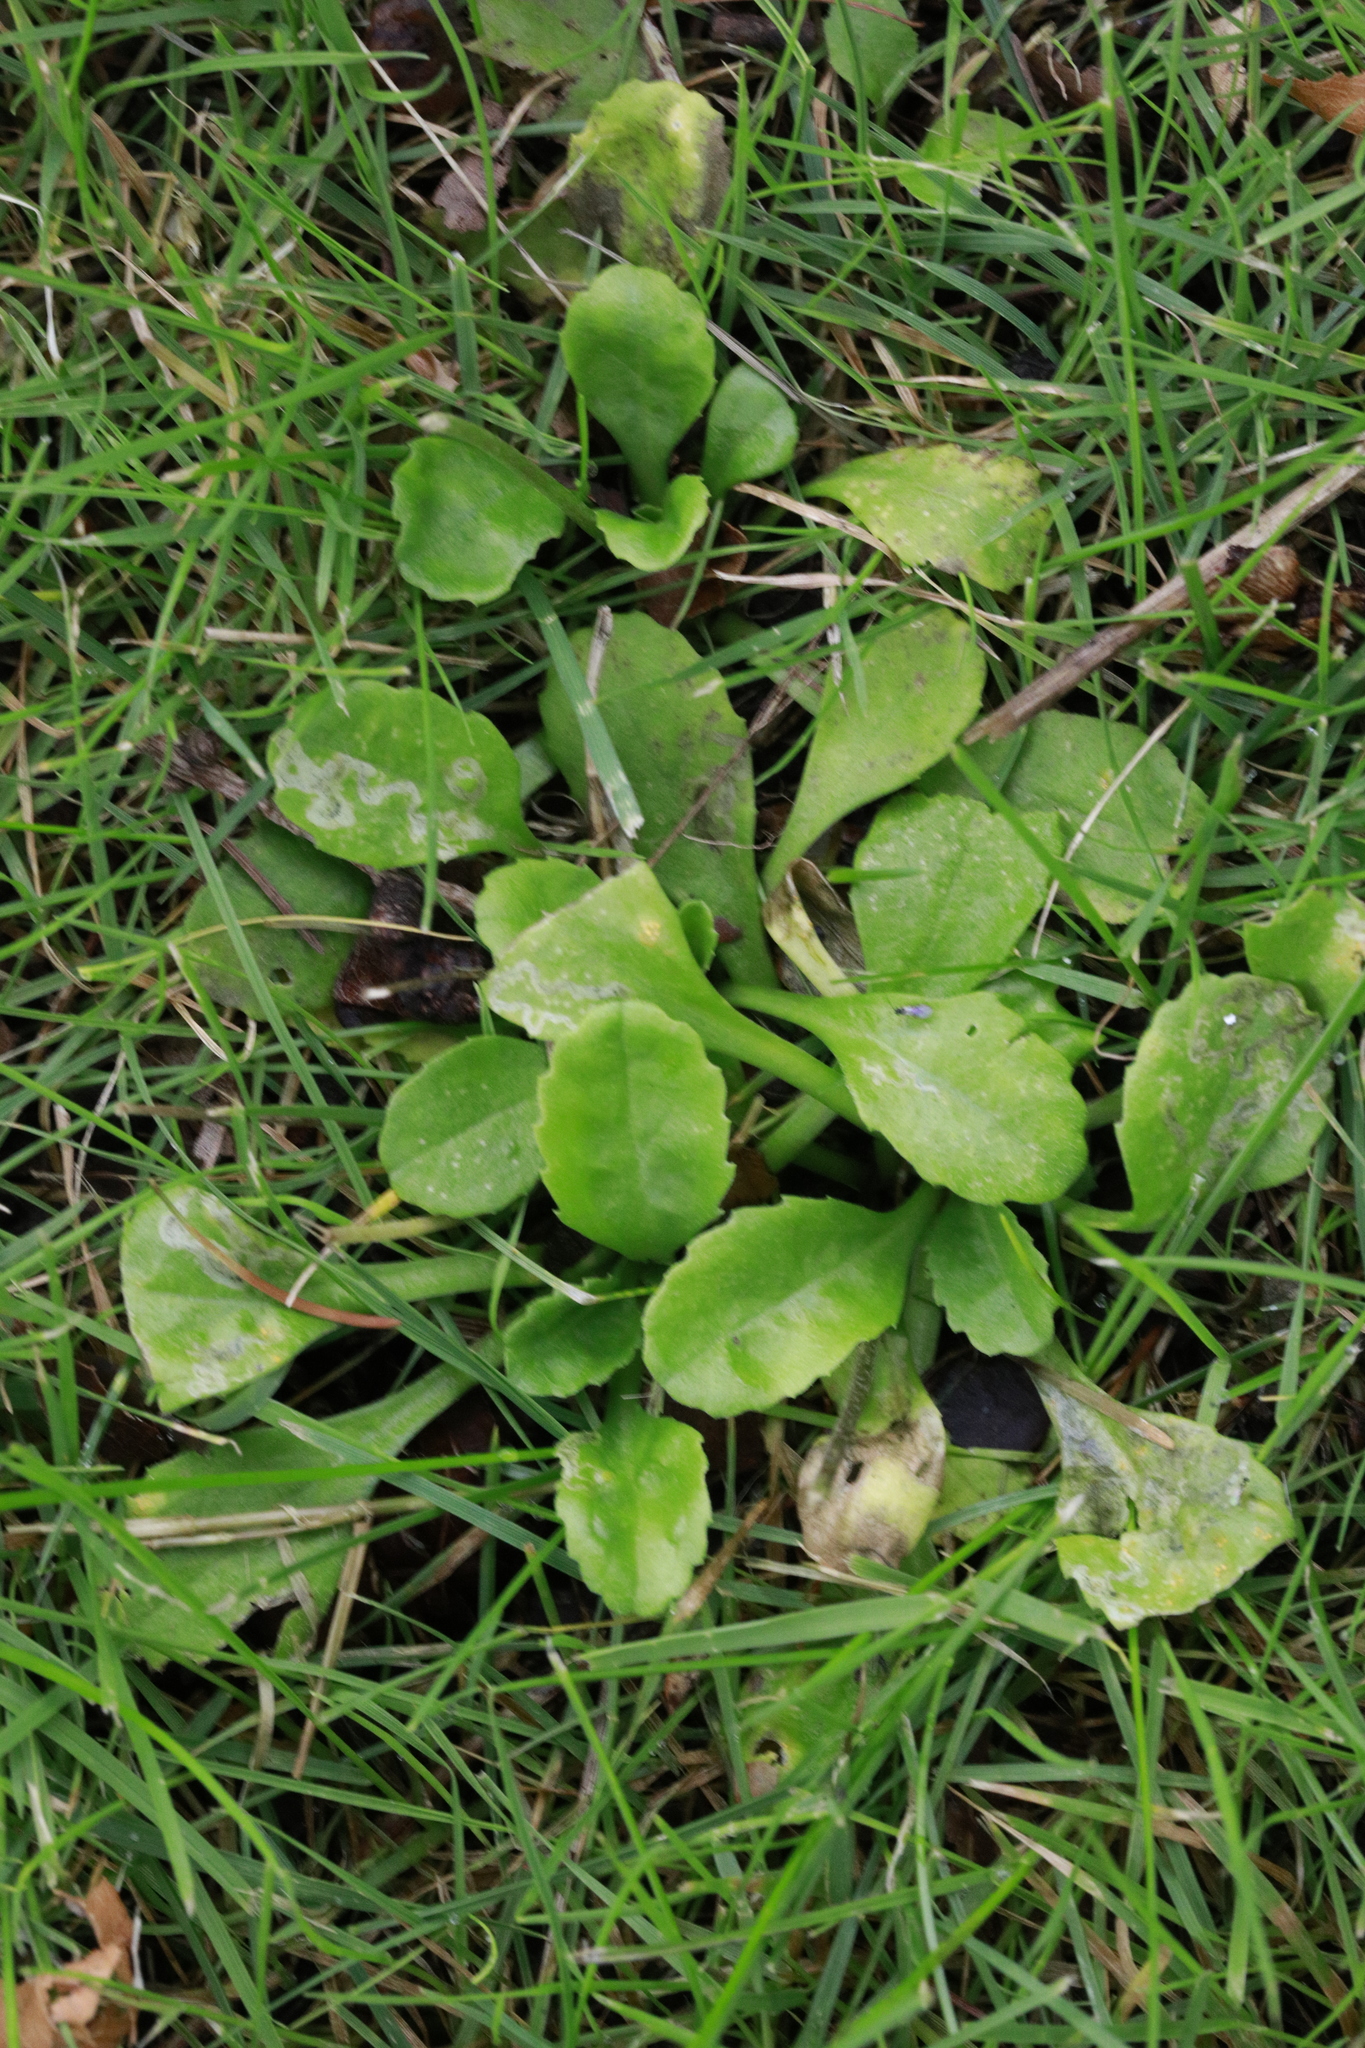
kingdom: Animalia
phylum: Arthropoda
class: Insecta
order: Diptera
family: Agromyzidae
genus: Liriomyza
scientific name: Liriomyza pusilla
